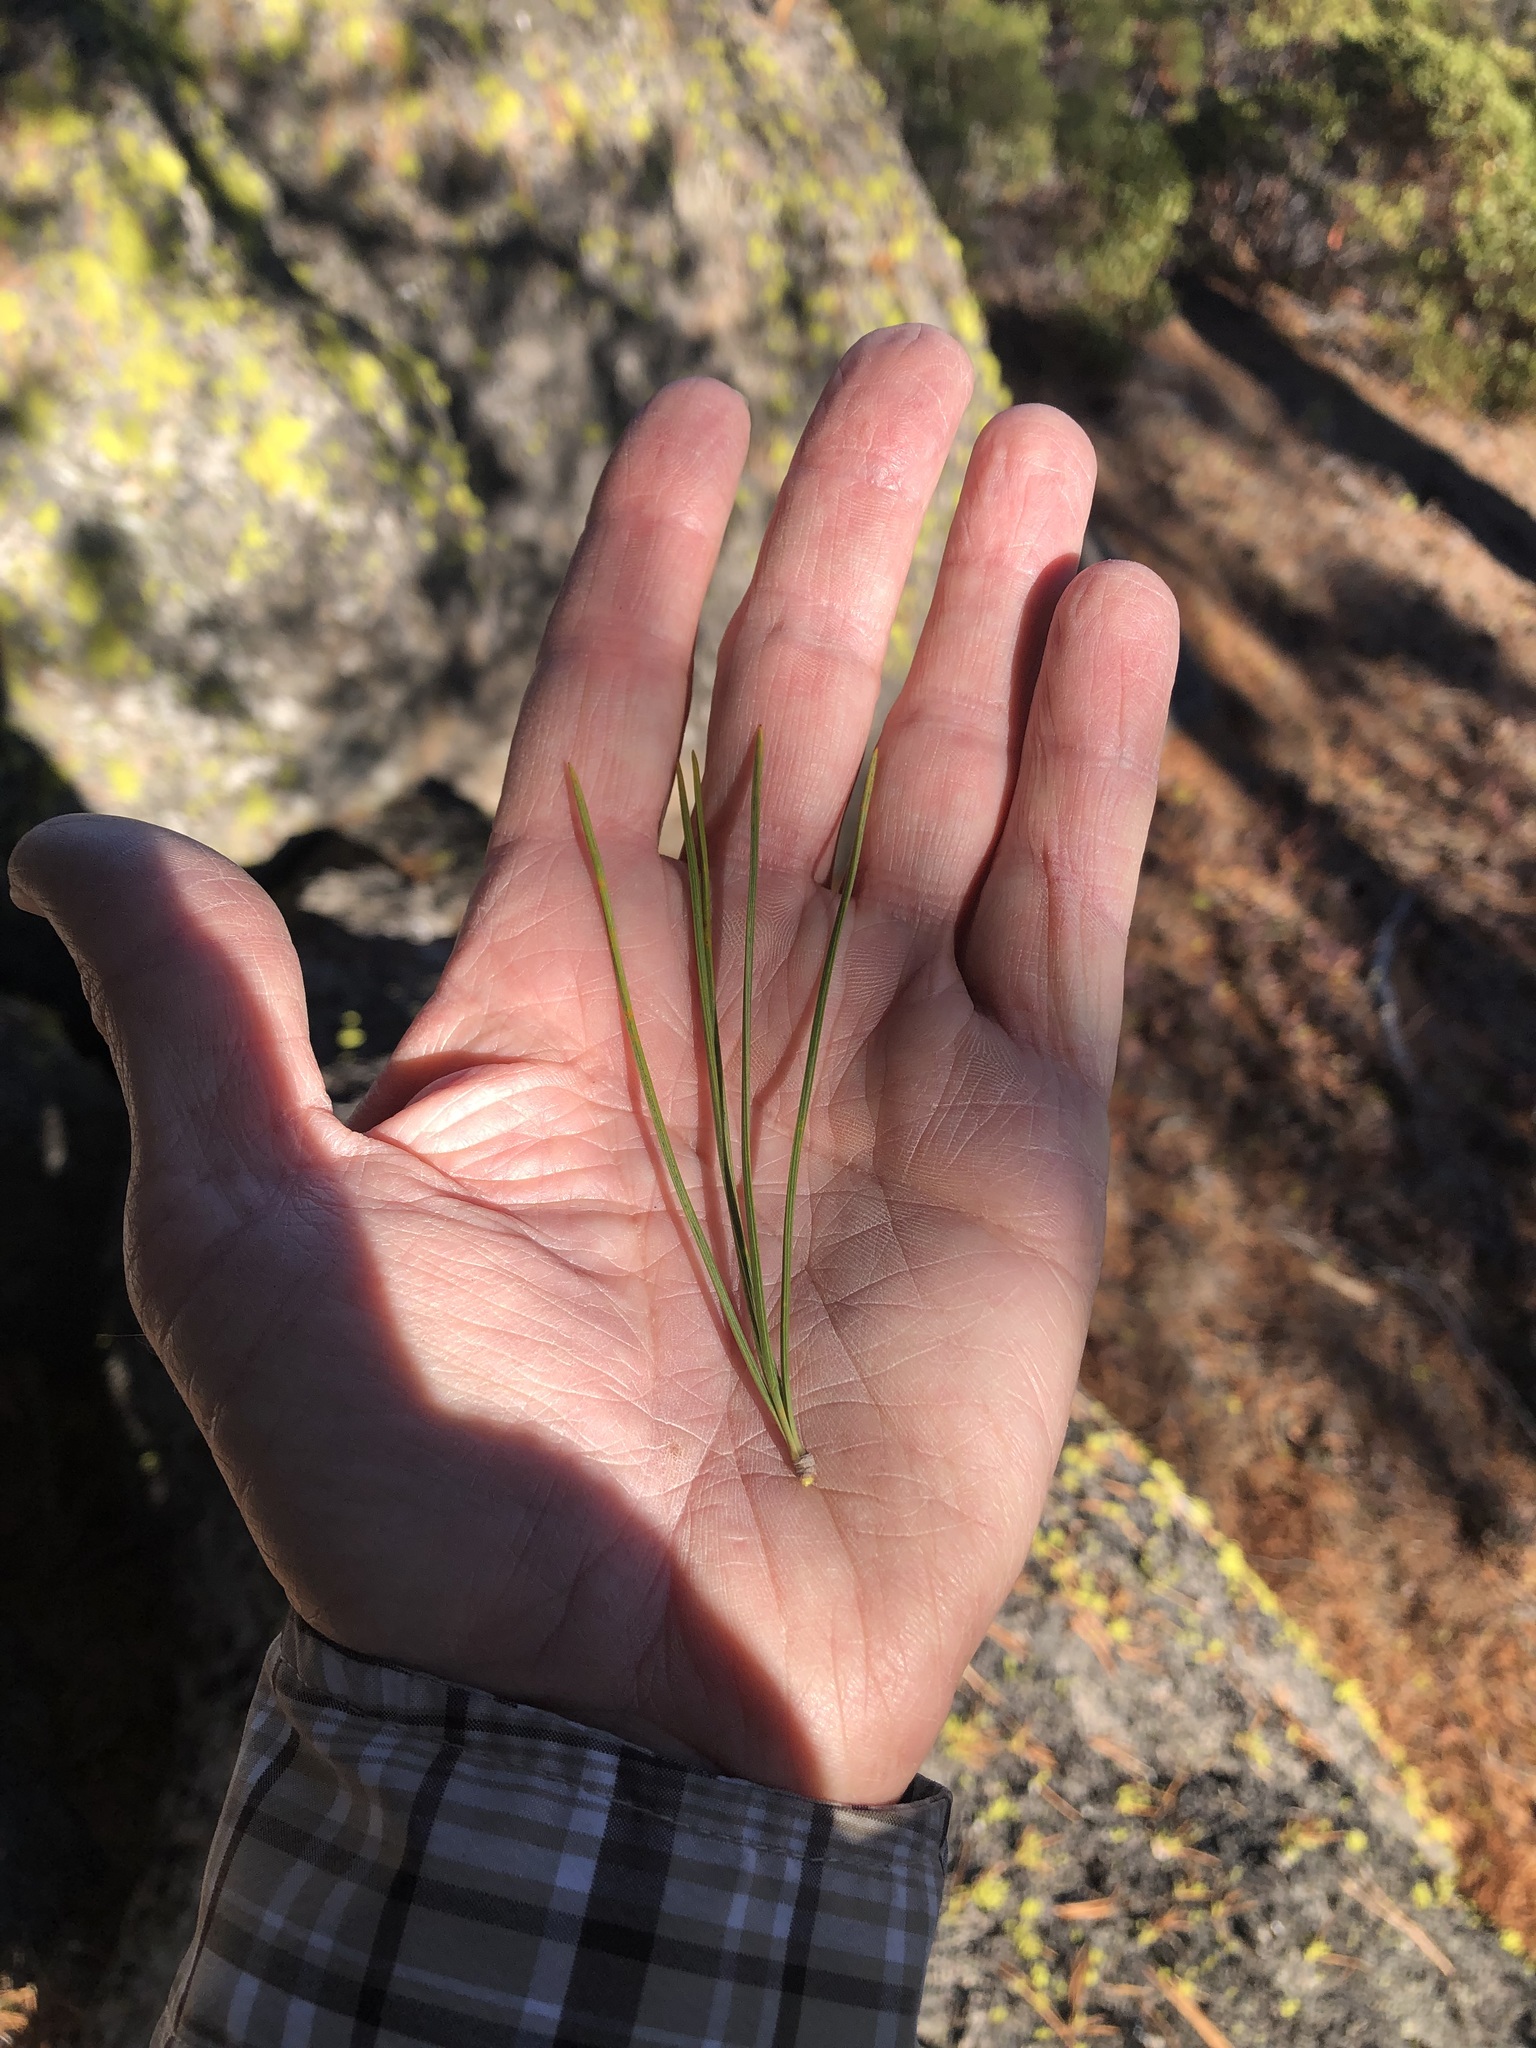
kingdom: Plantae
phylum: Tracheophyta
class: Pinopsida
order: Pinales
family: Pinaceae
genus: Pinus
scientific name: Pinus lambertiana
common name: Sugar pine
